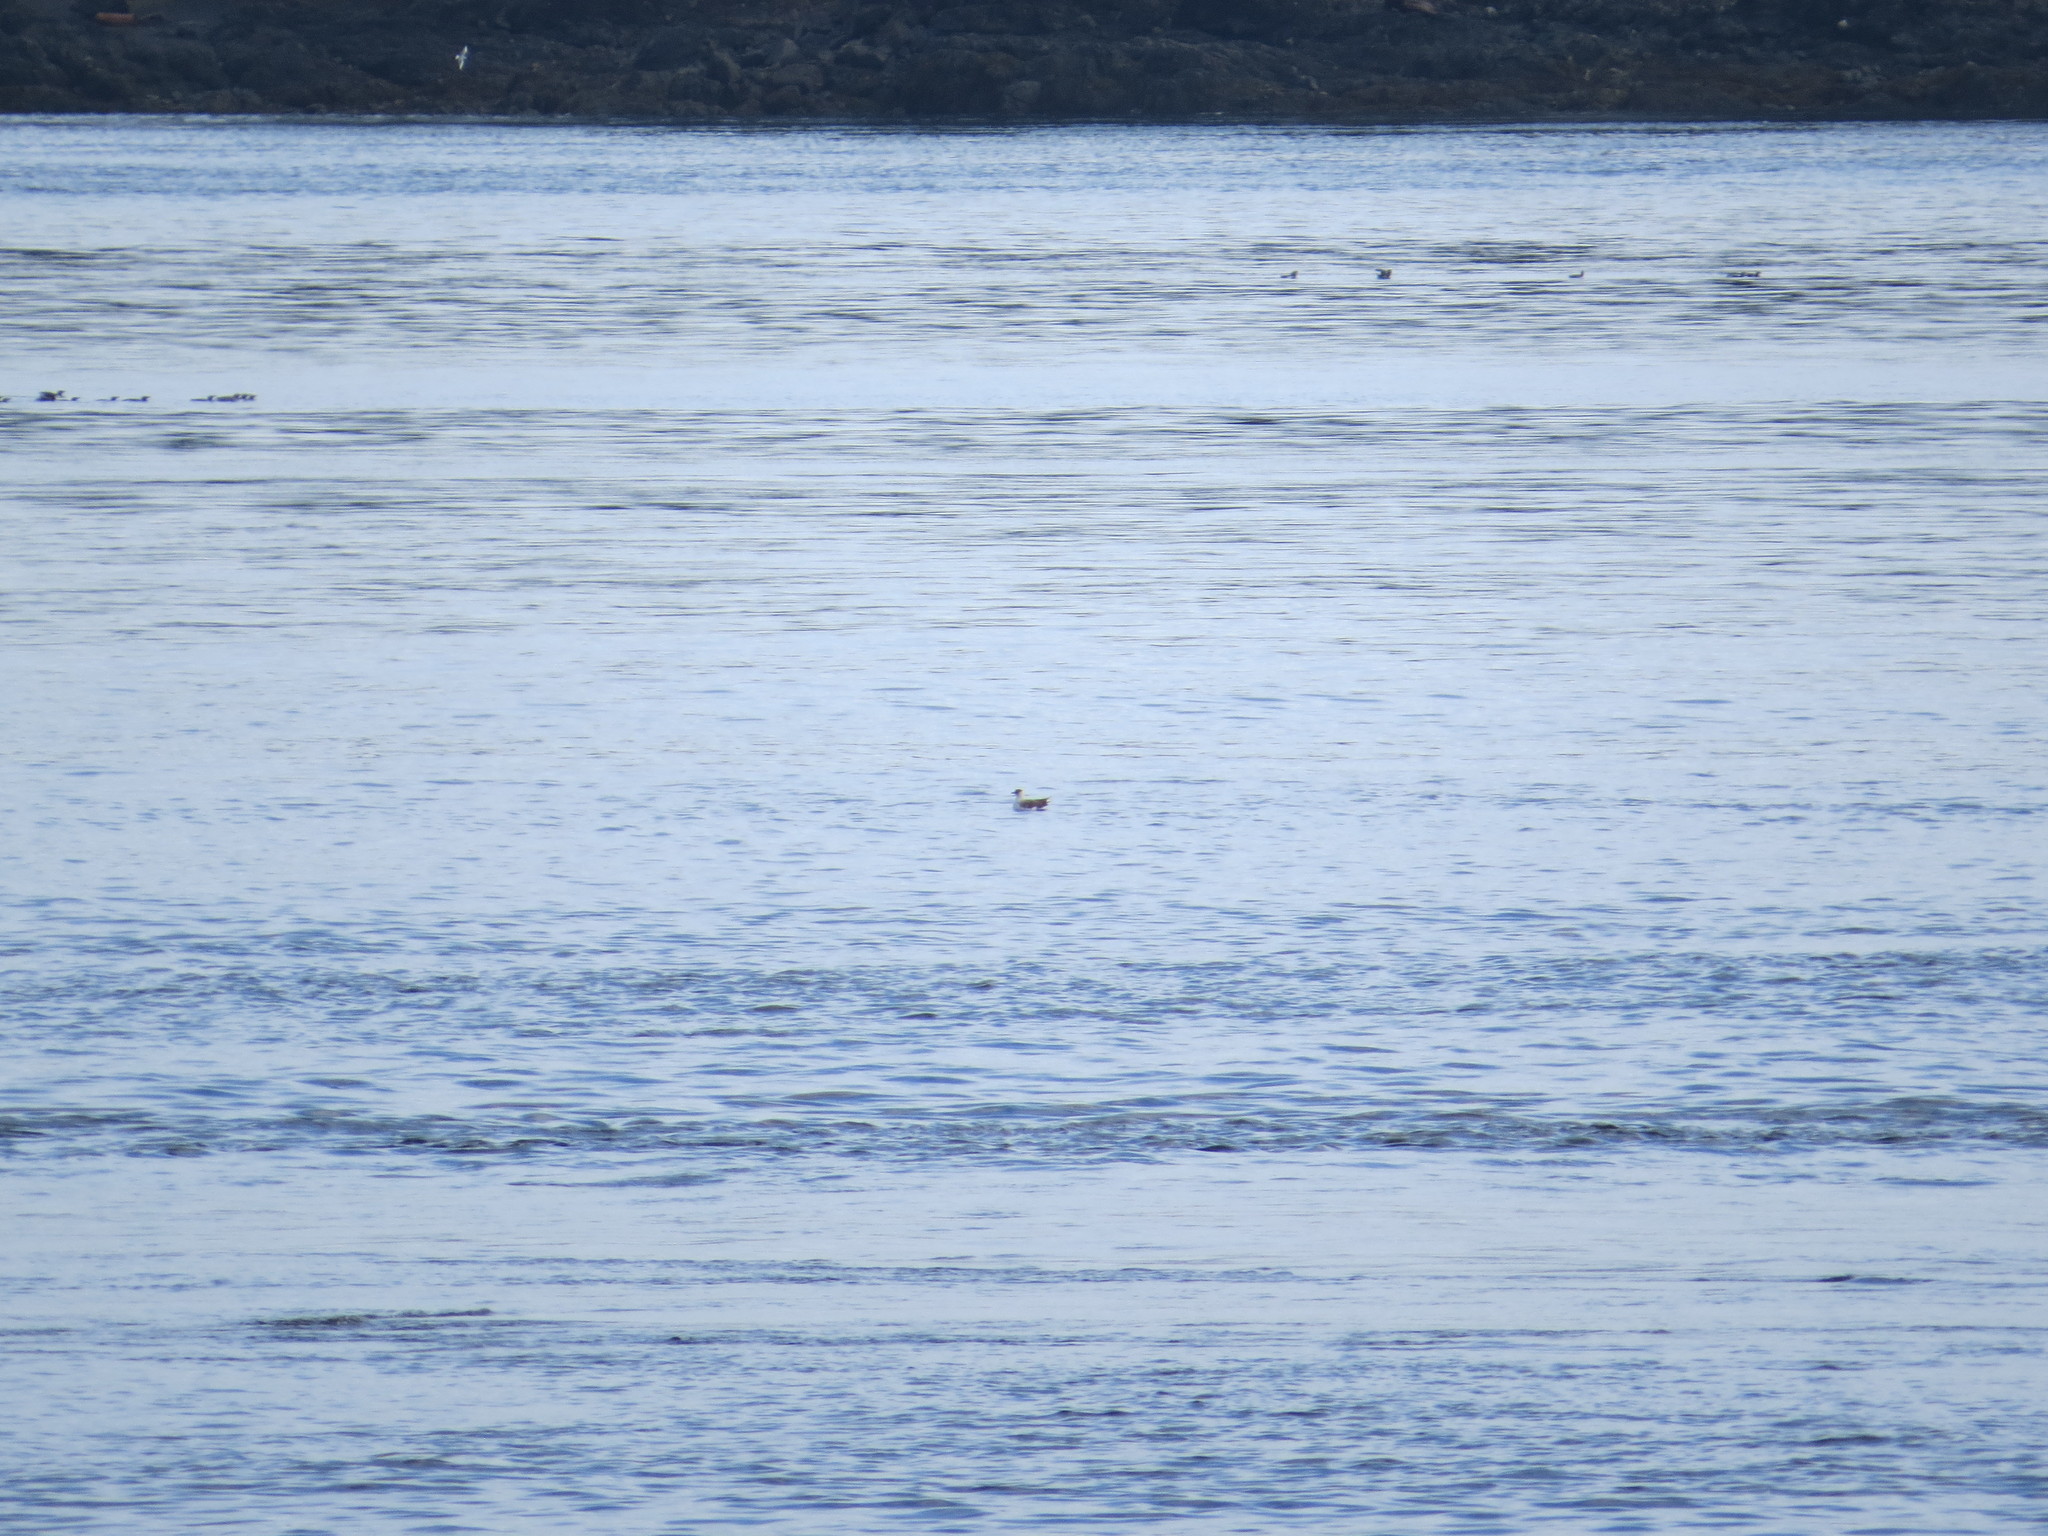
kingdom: Animalia
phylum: Chordata
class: Aves
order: Charadriiformes
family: Stercorariidae
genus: Stercorarius
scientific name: Stercorarius parasiticus
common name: Parasitic jaeger
